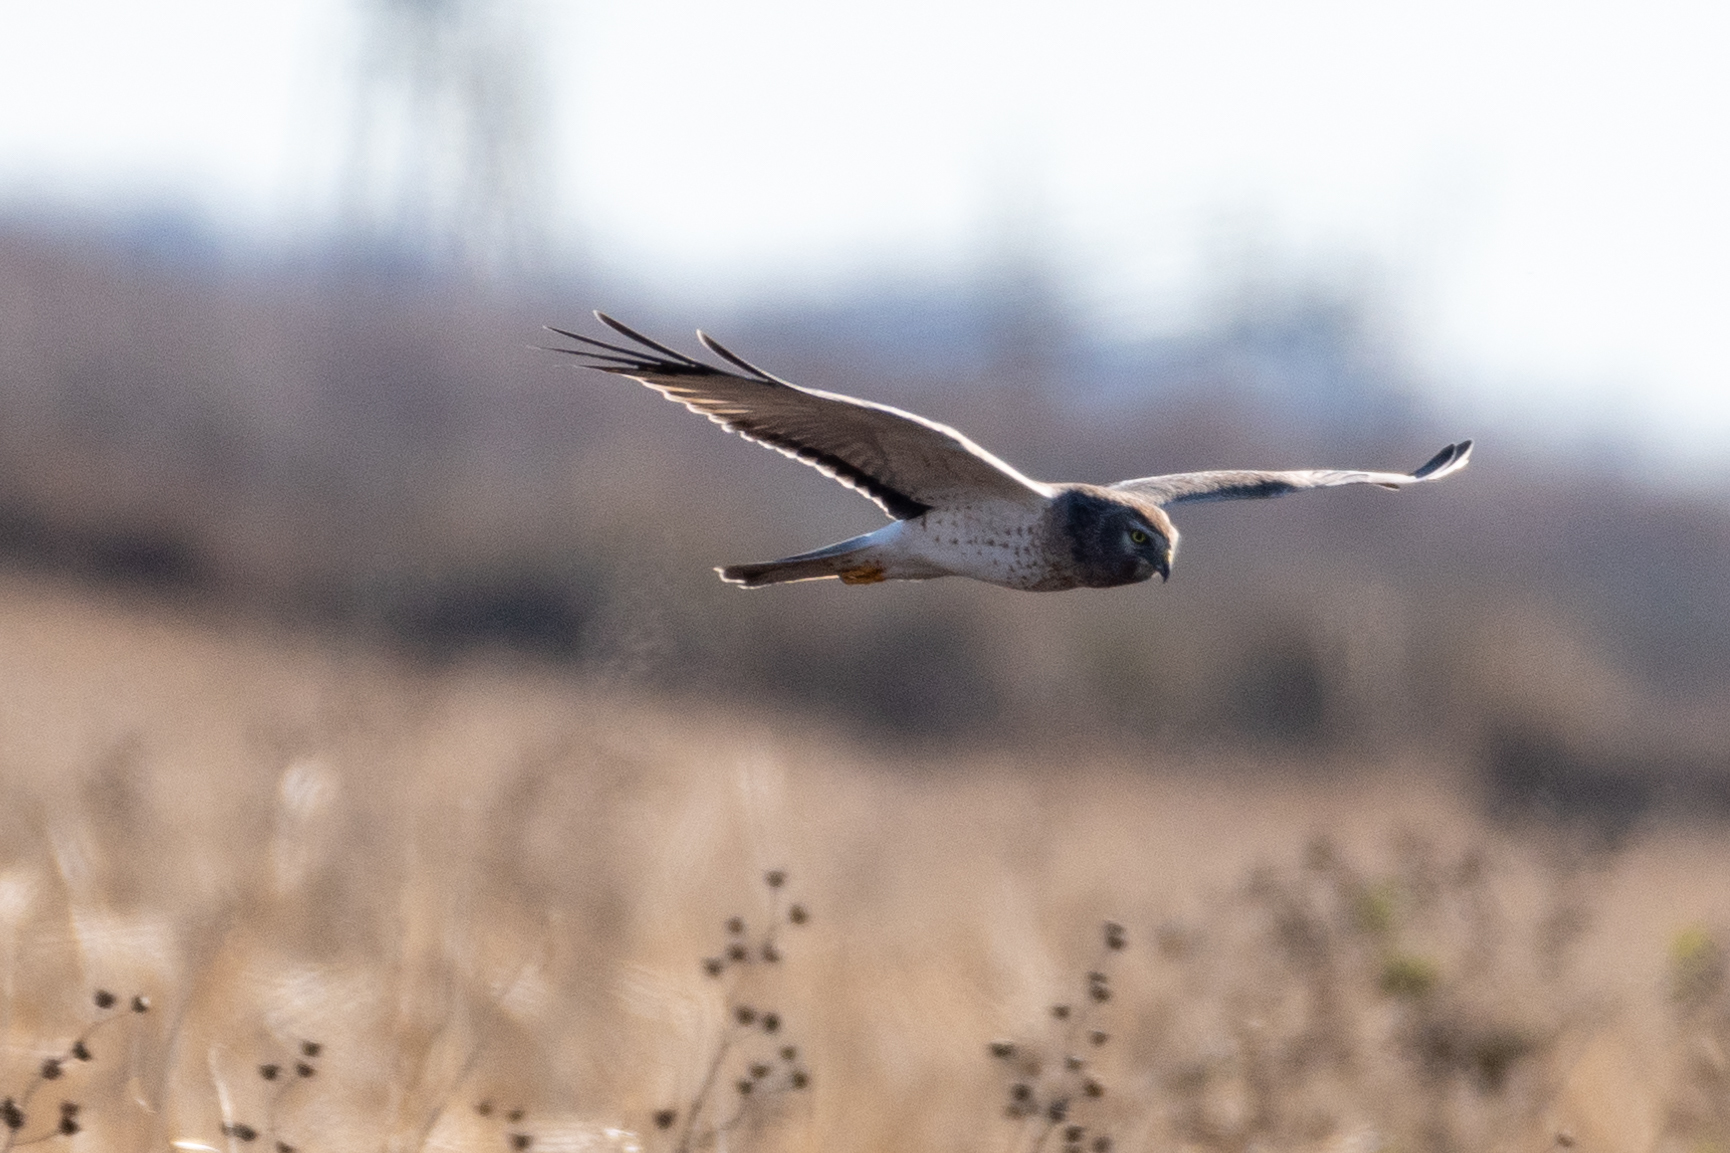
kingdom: Animalia
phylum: Chordata
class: Aves
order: Accipitriformes
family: Accipitridae
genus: Circus
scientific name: Circus cyaneus
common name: Hen harrier
